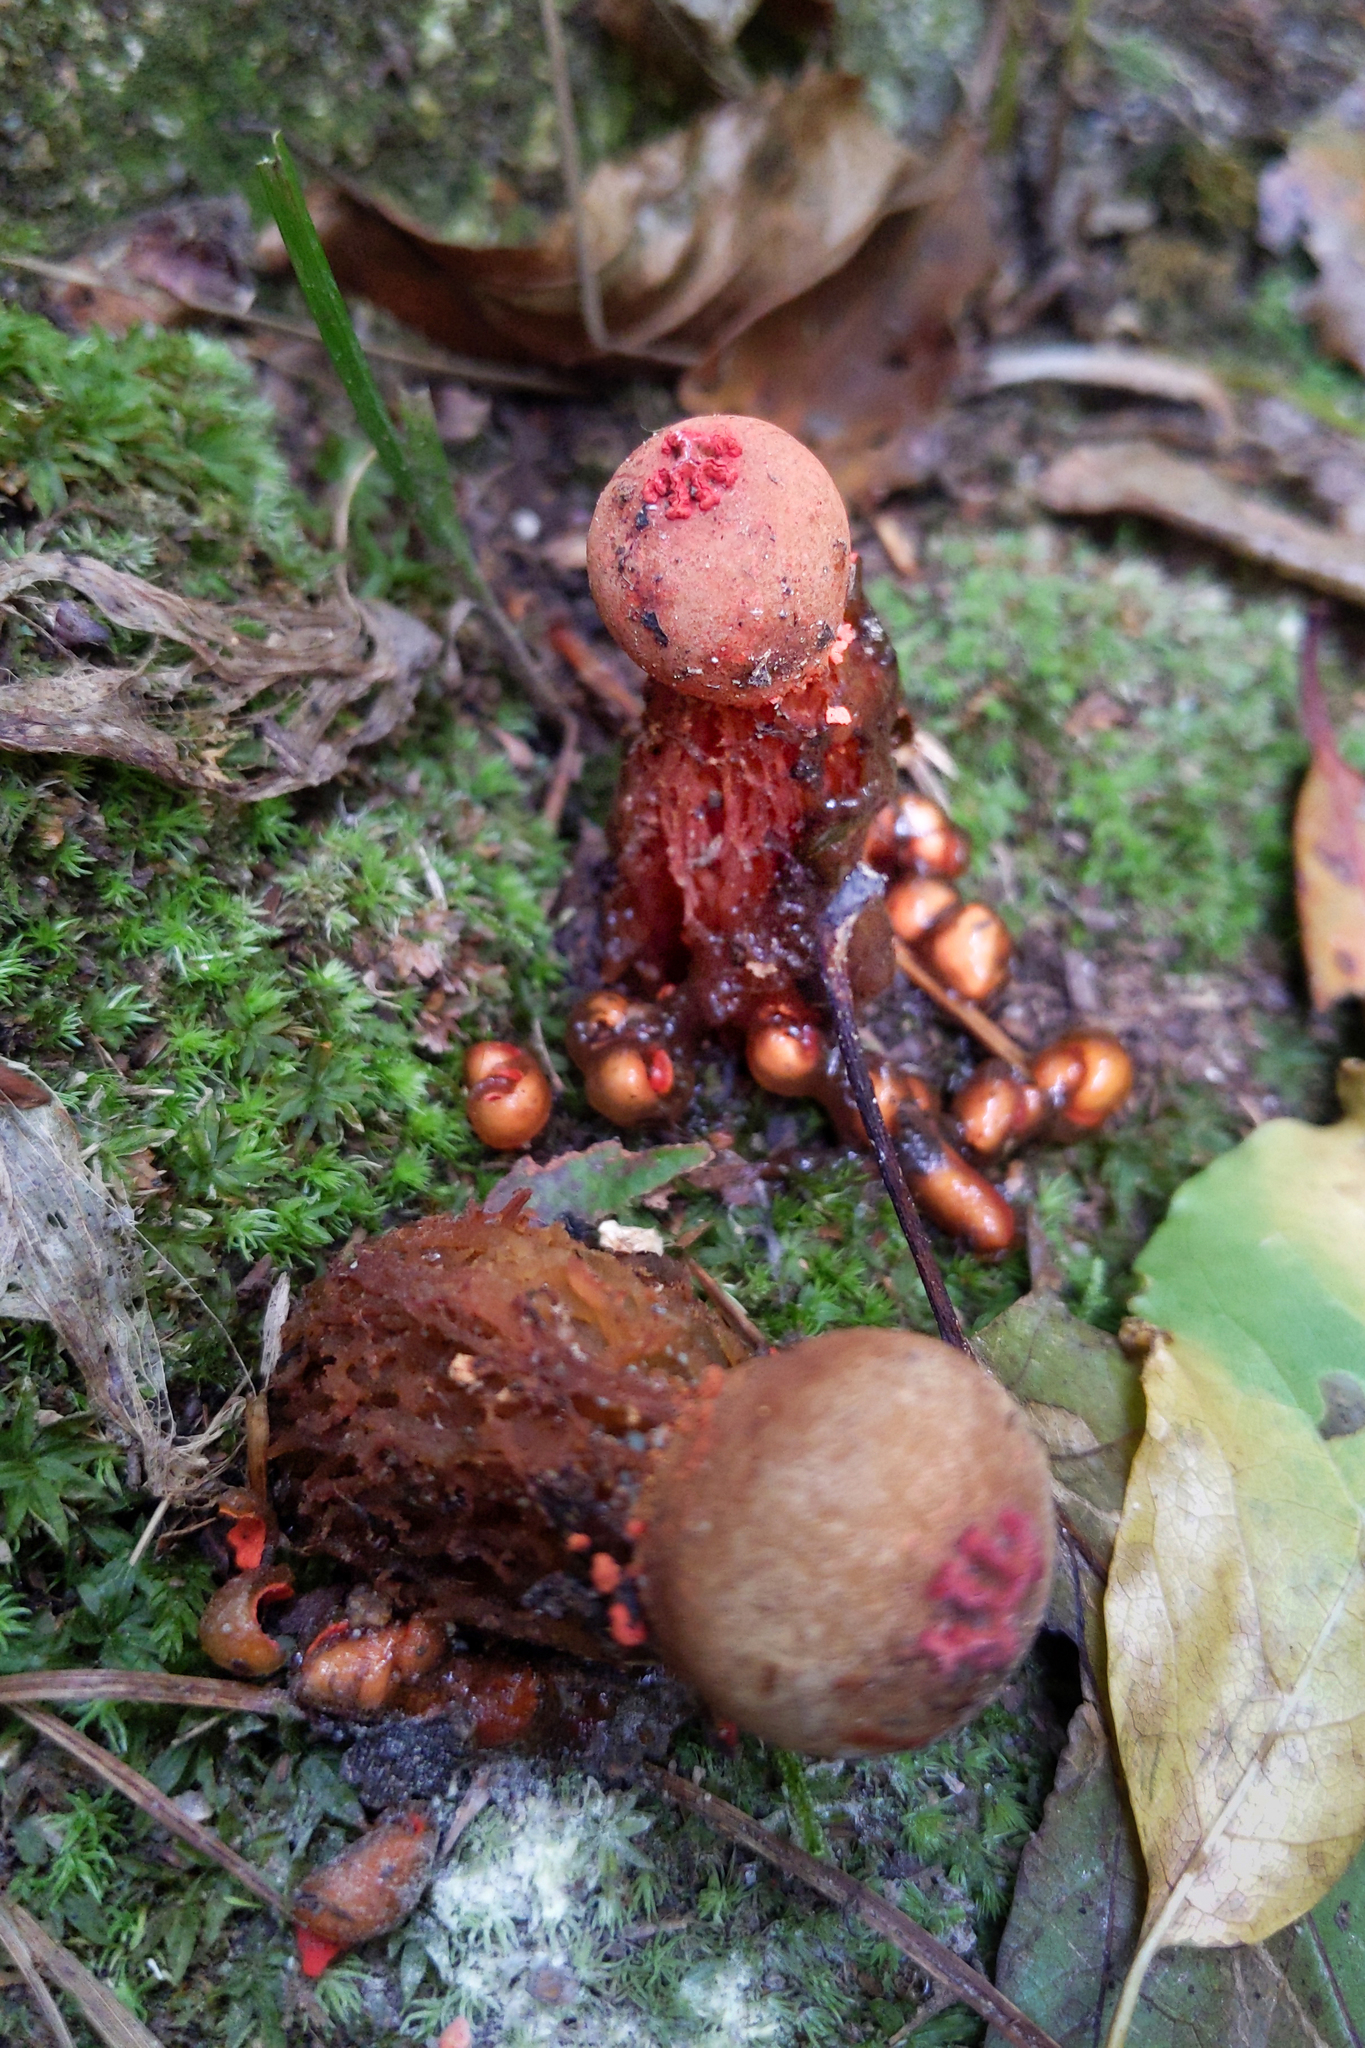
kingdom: Fungi
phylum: Basidiomycota
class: Agaricomycetes
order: Boletales
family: Calostomataceae
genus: Calostoma
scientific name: Calostoma cinnabarinum
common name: Stalked puffball-in-aspic
